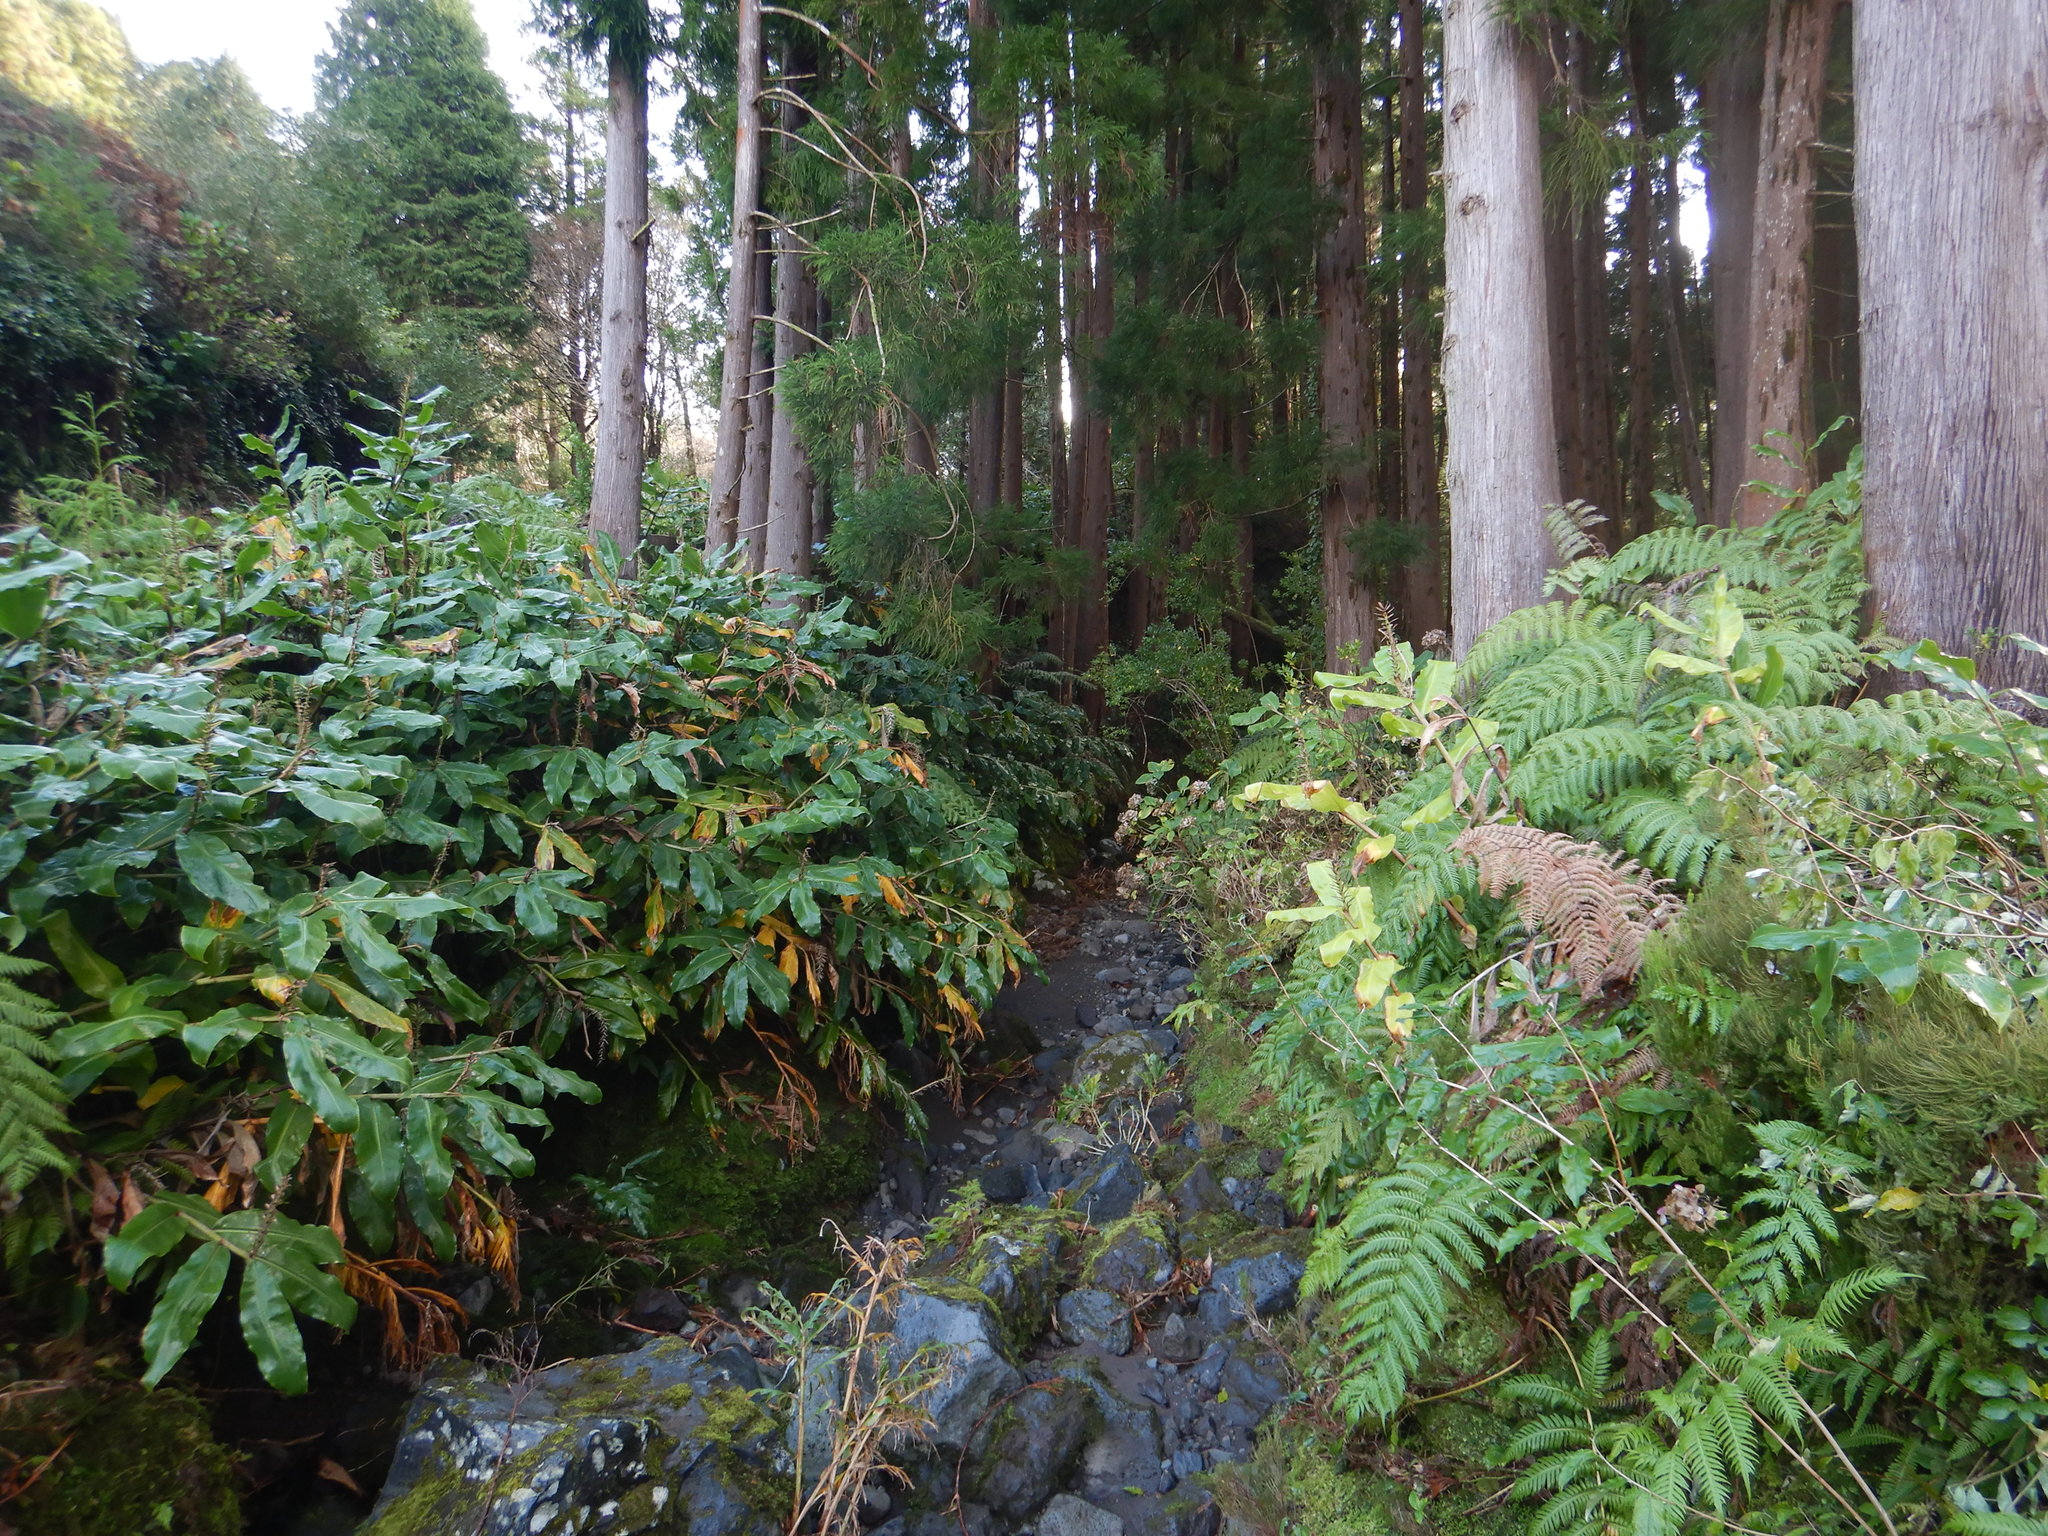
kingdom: Plantae
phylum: Tracheophyta
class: Liliopsida
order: Zingiberales
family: Zingiberaceae
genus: Hedychium
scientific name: Hedychium gardnerianum
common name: Himalayan ginger
